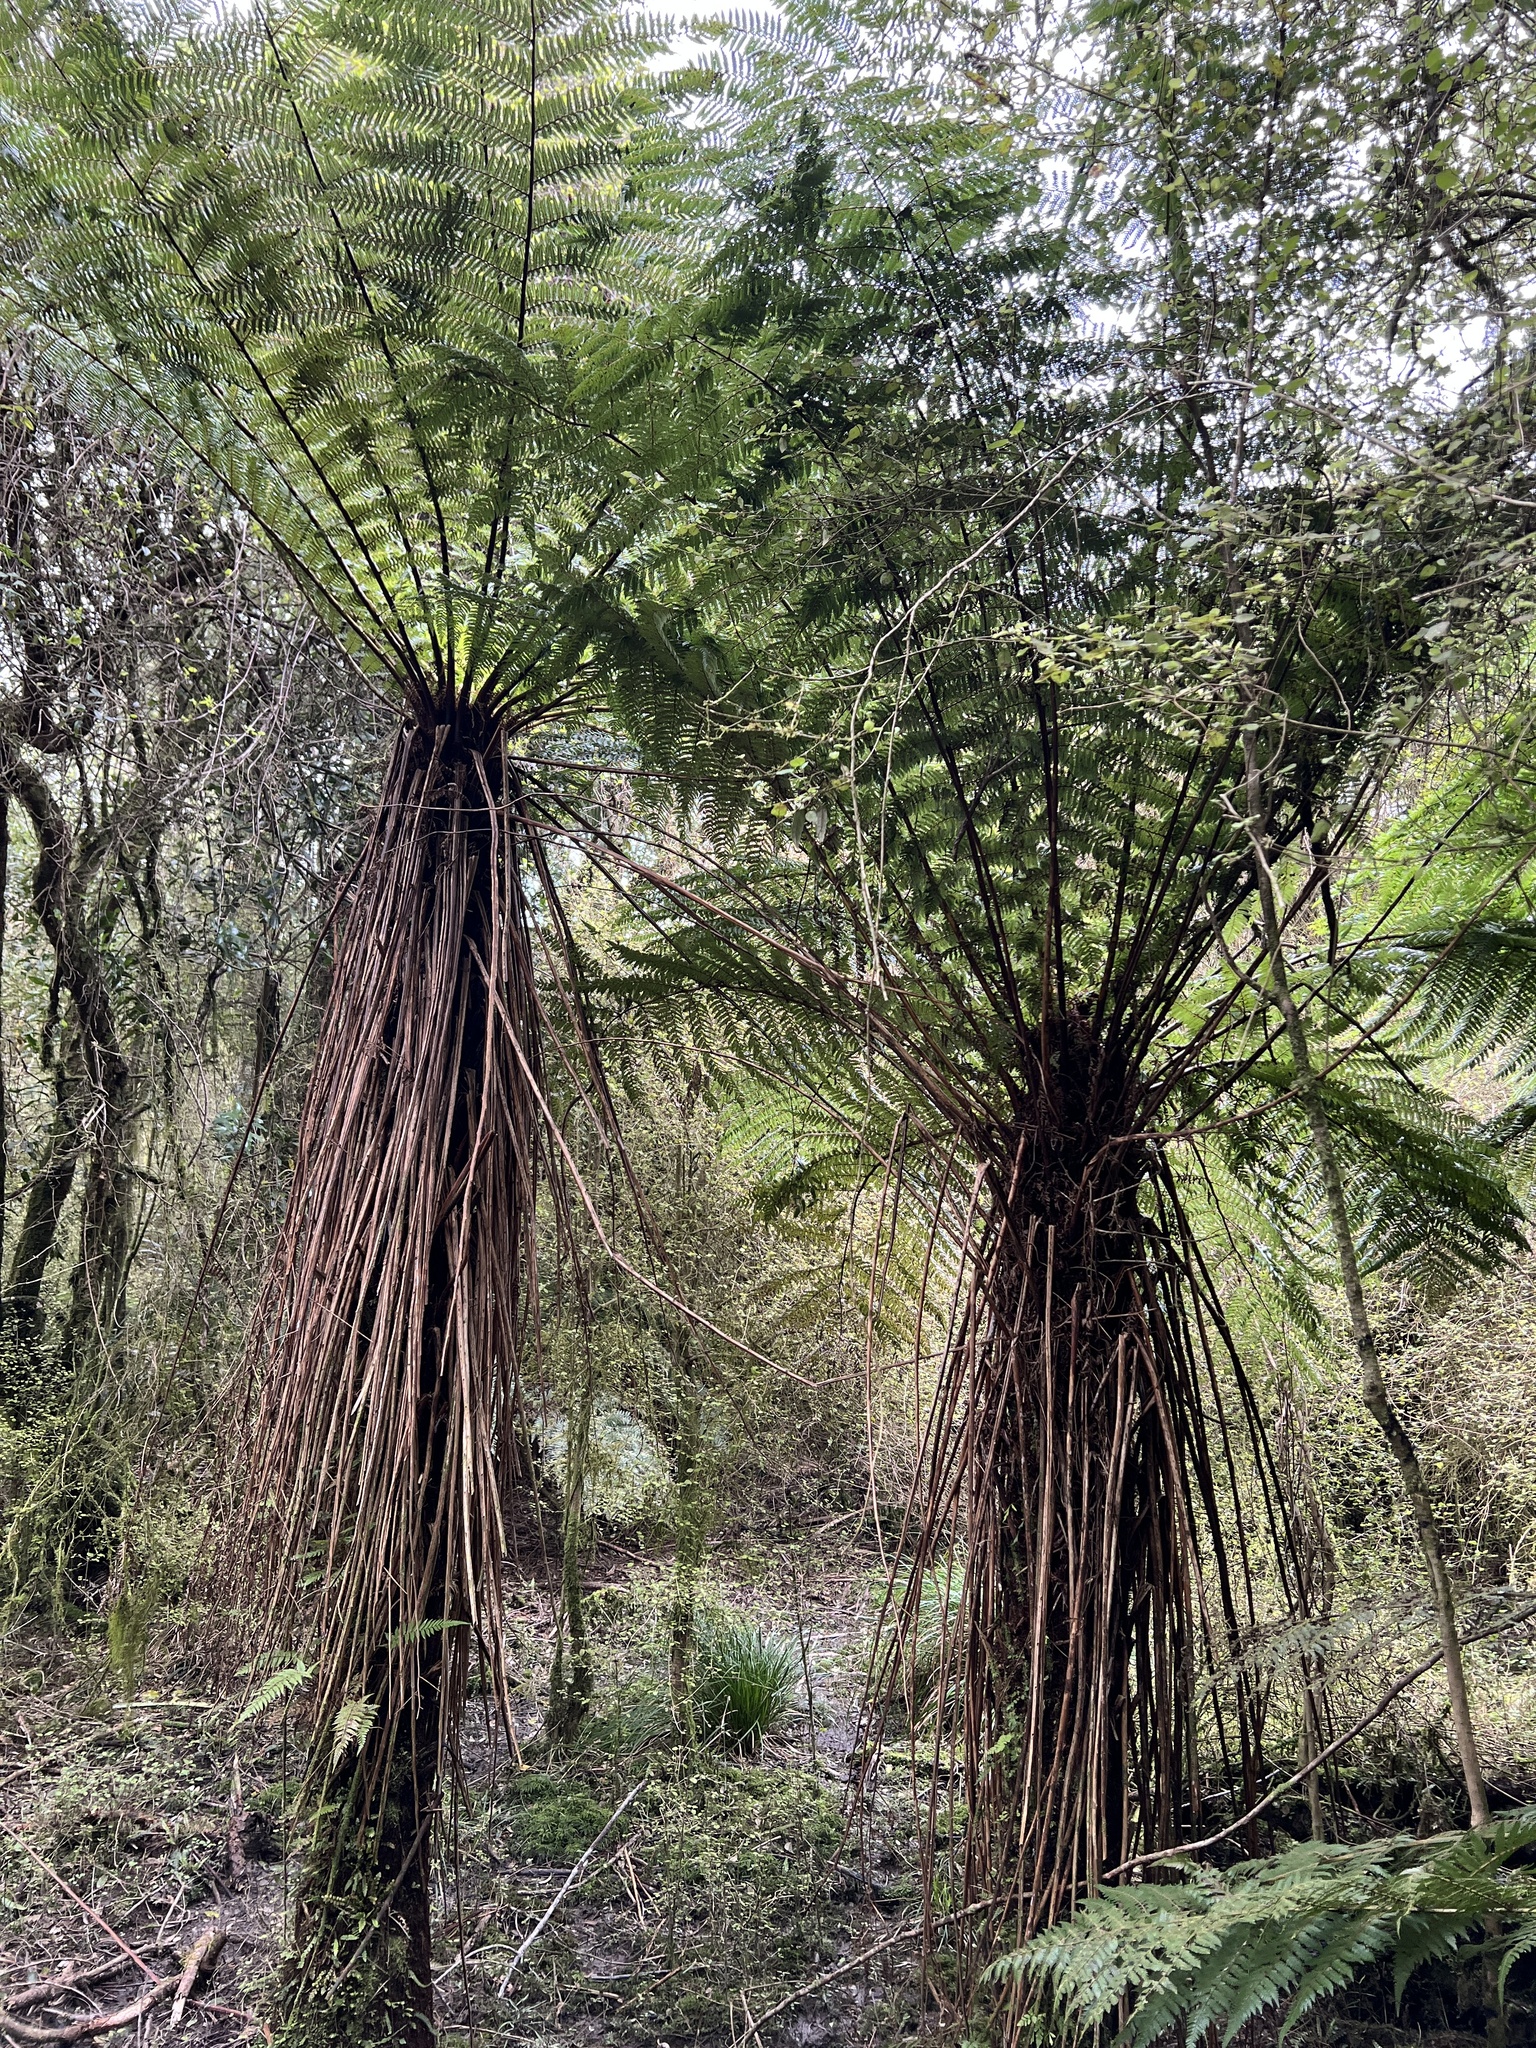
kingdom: Plantae
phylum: Tracheophyta
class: Polypodiopsida
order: Cyatheales
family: Cyatheaceae
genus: Alsophila
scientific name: Alsophila smithii
